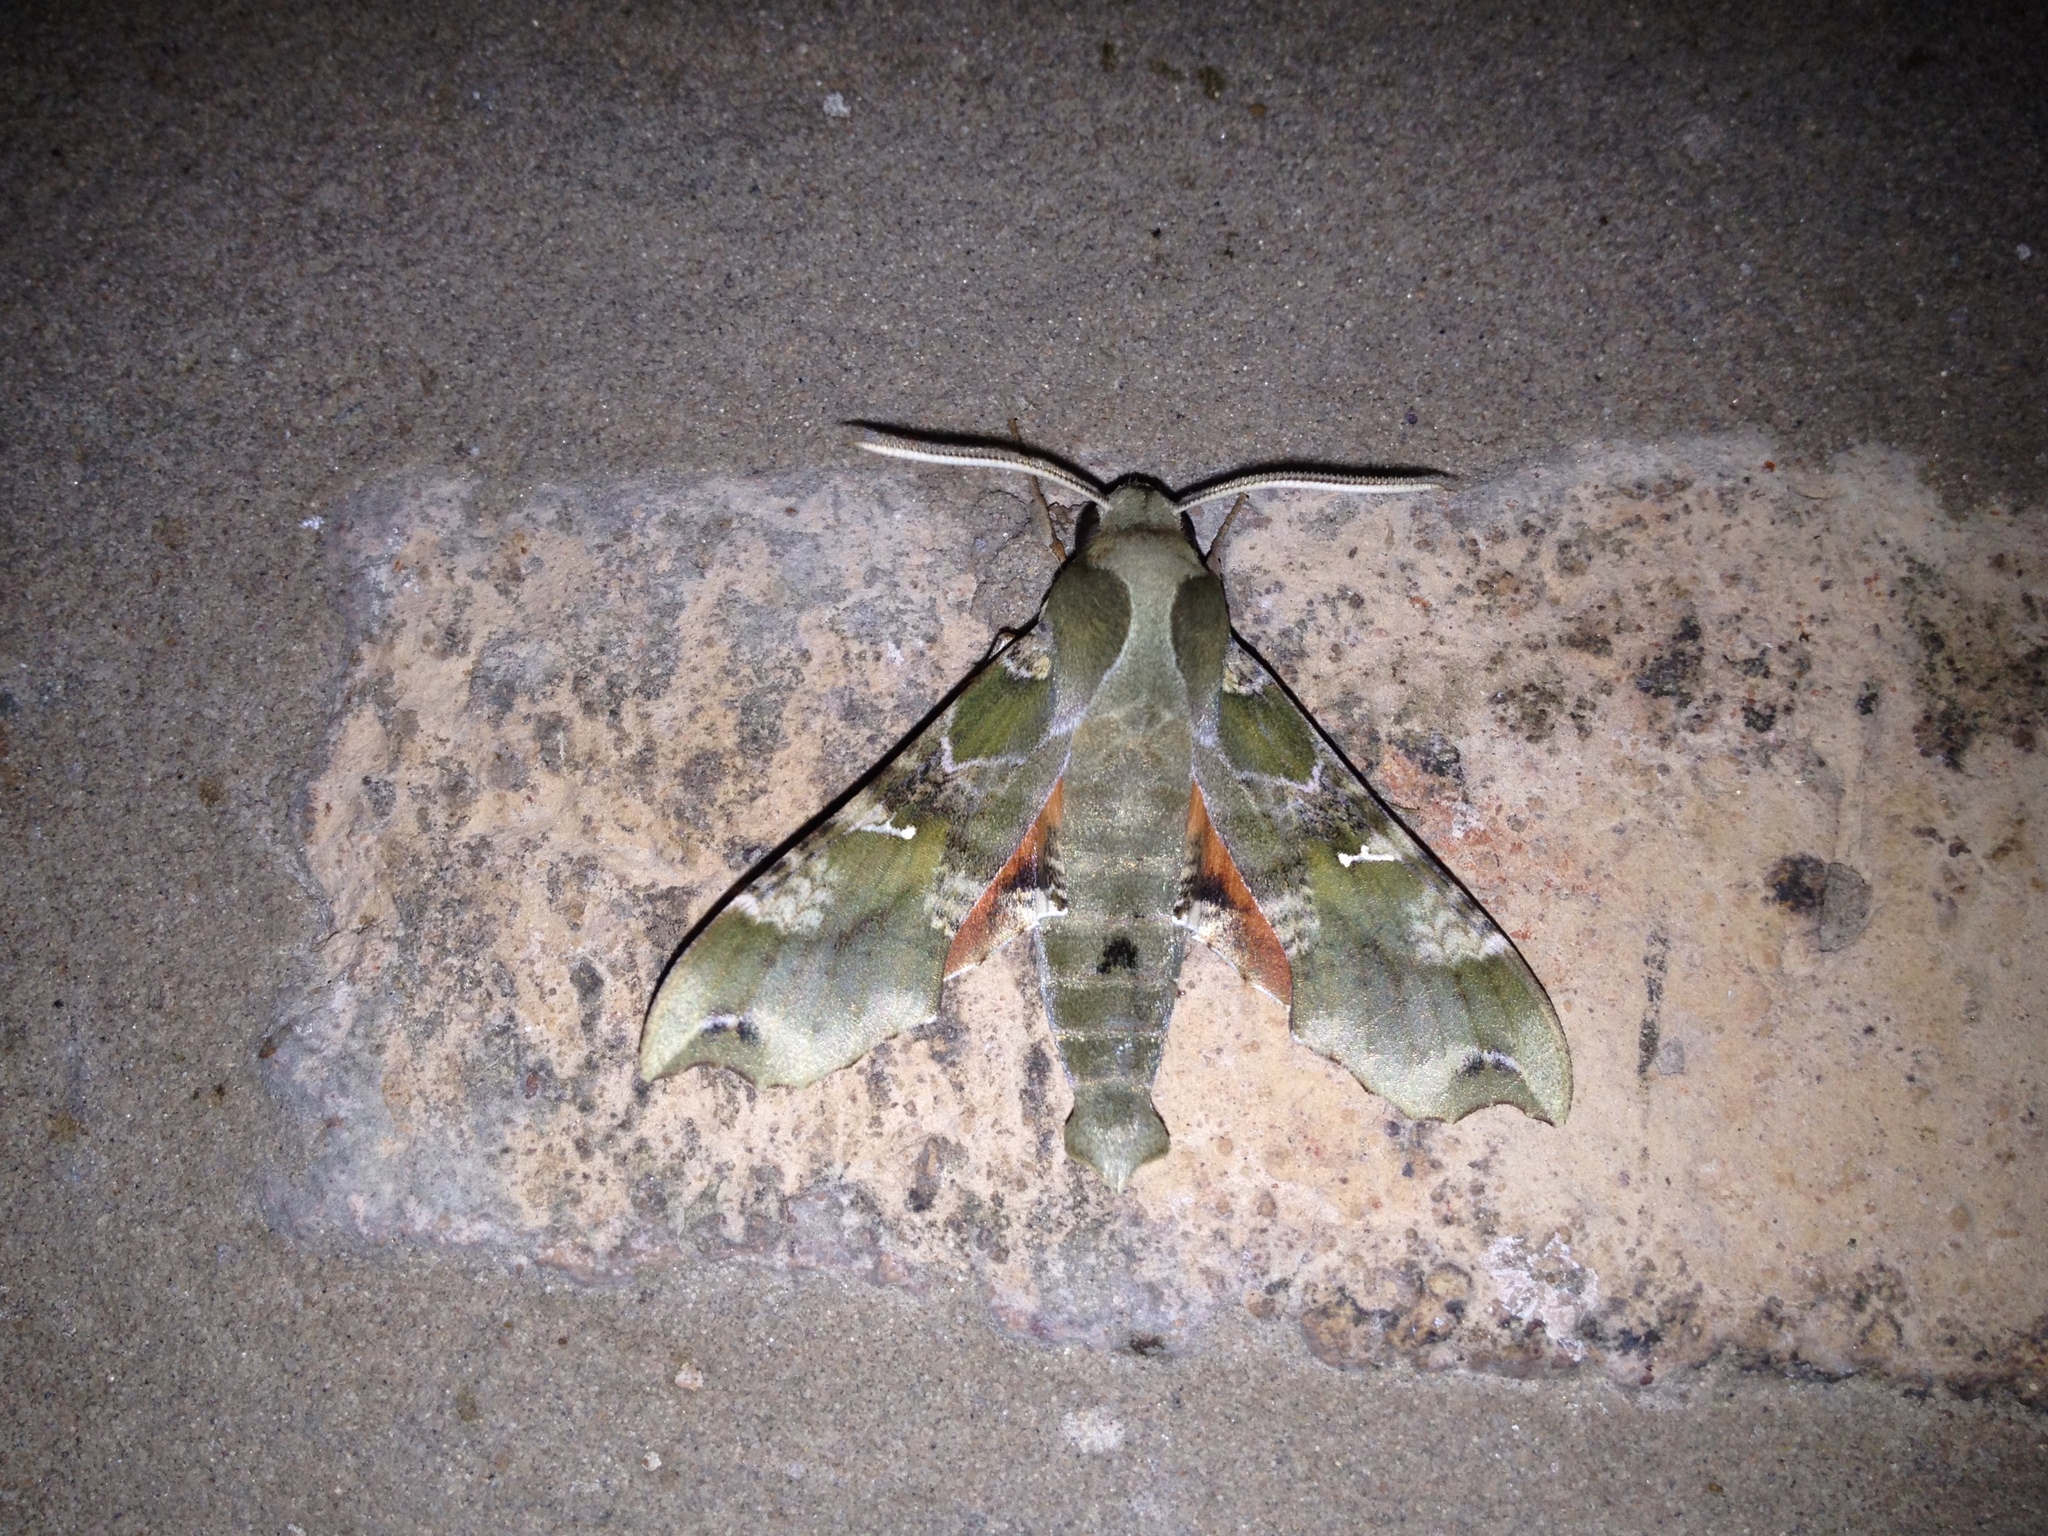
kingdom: Animalia
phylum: Arthropoda
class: Insecta
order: Lepidoptera
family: Sphingidae
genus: Callionima
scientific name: Callionima grisescens
